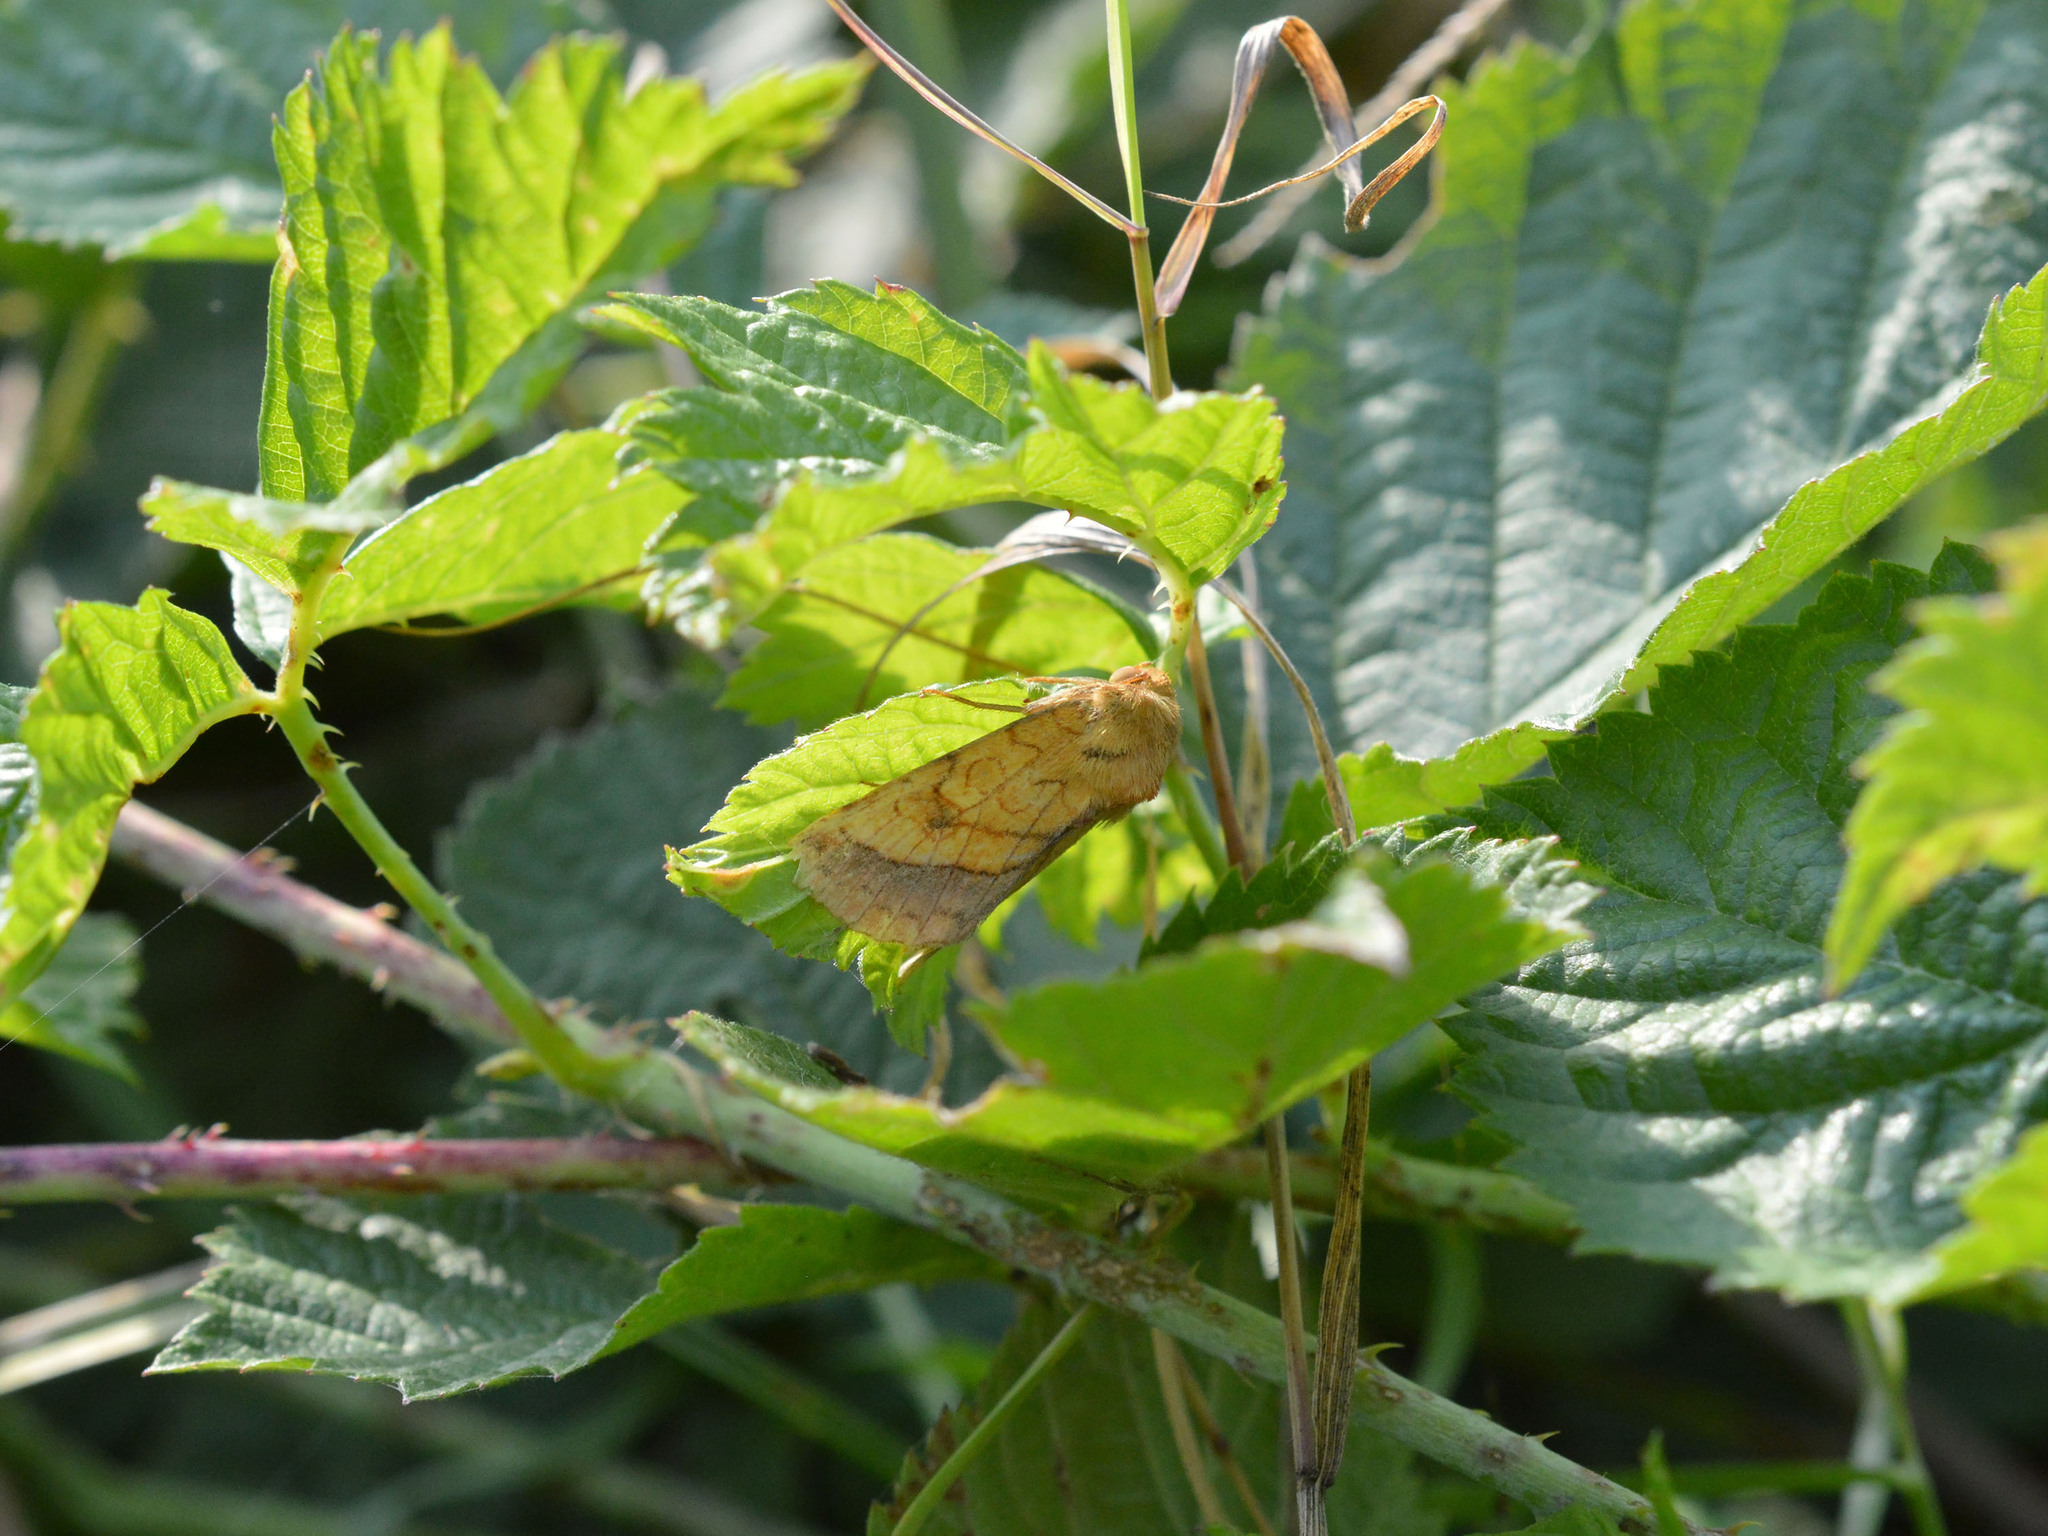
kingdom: Animalia
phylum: Arthropoda
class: Insecta
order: Lepidoptera
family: Noctuidae
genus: Pyrrhia
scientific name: Pyrrhia umbra
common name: Bordered sallow
